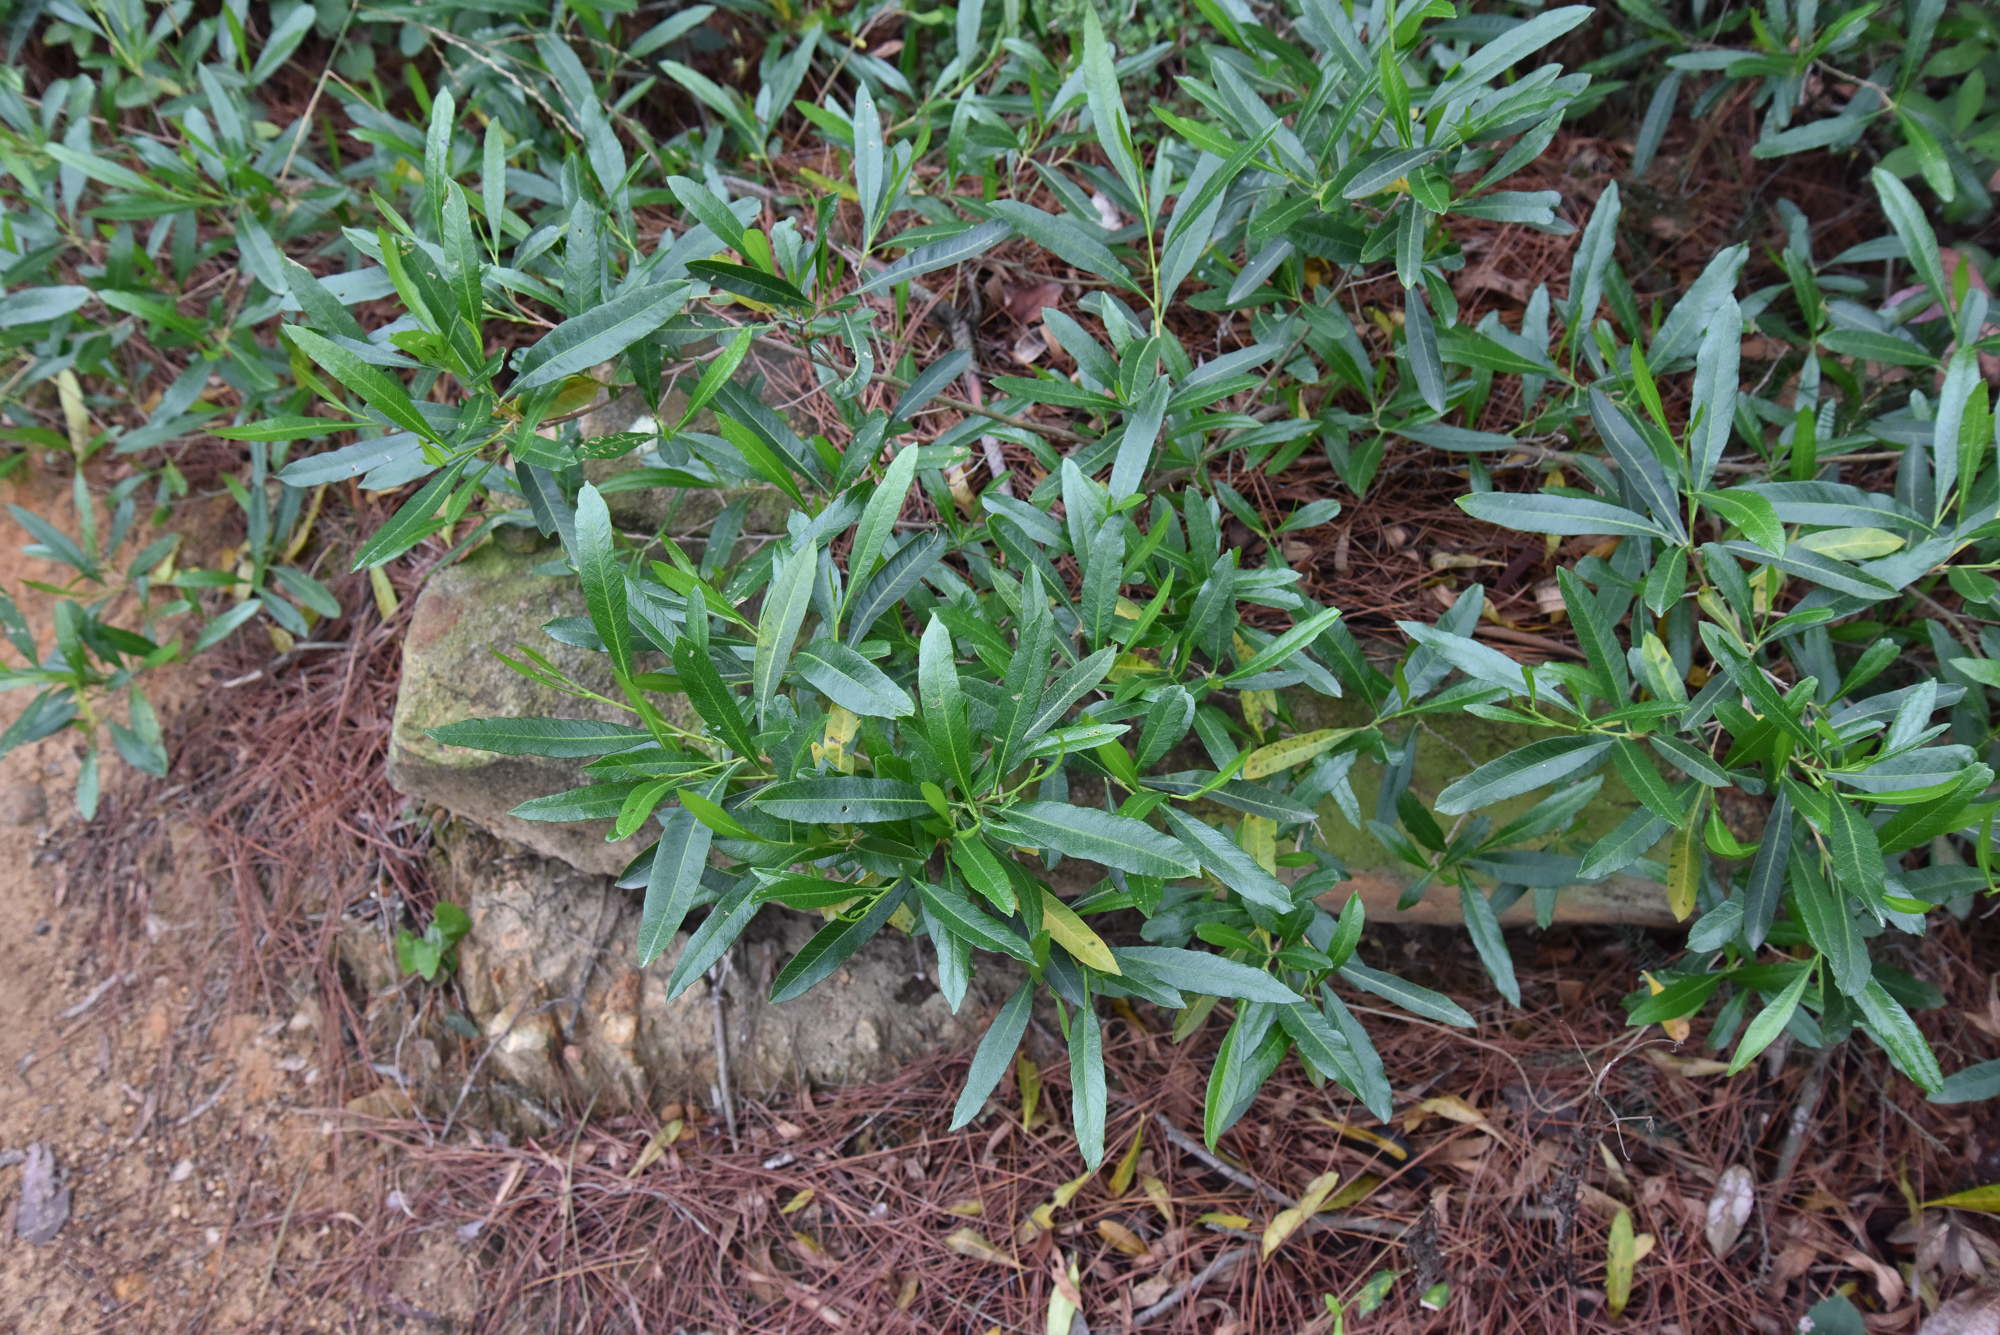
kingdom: Plantae
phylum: Tracheophyta
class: Magnoliopsida
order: Sapindales
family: Sapindaceae
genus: Dodonaea
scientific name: Dodonaea viscosa
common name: Hopbush
